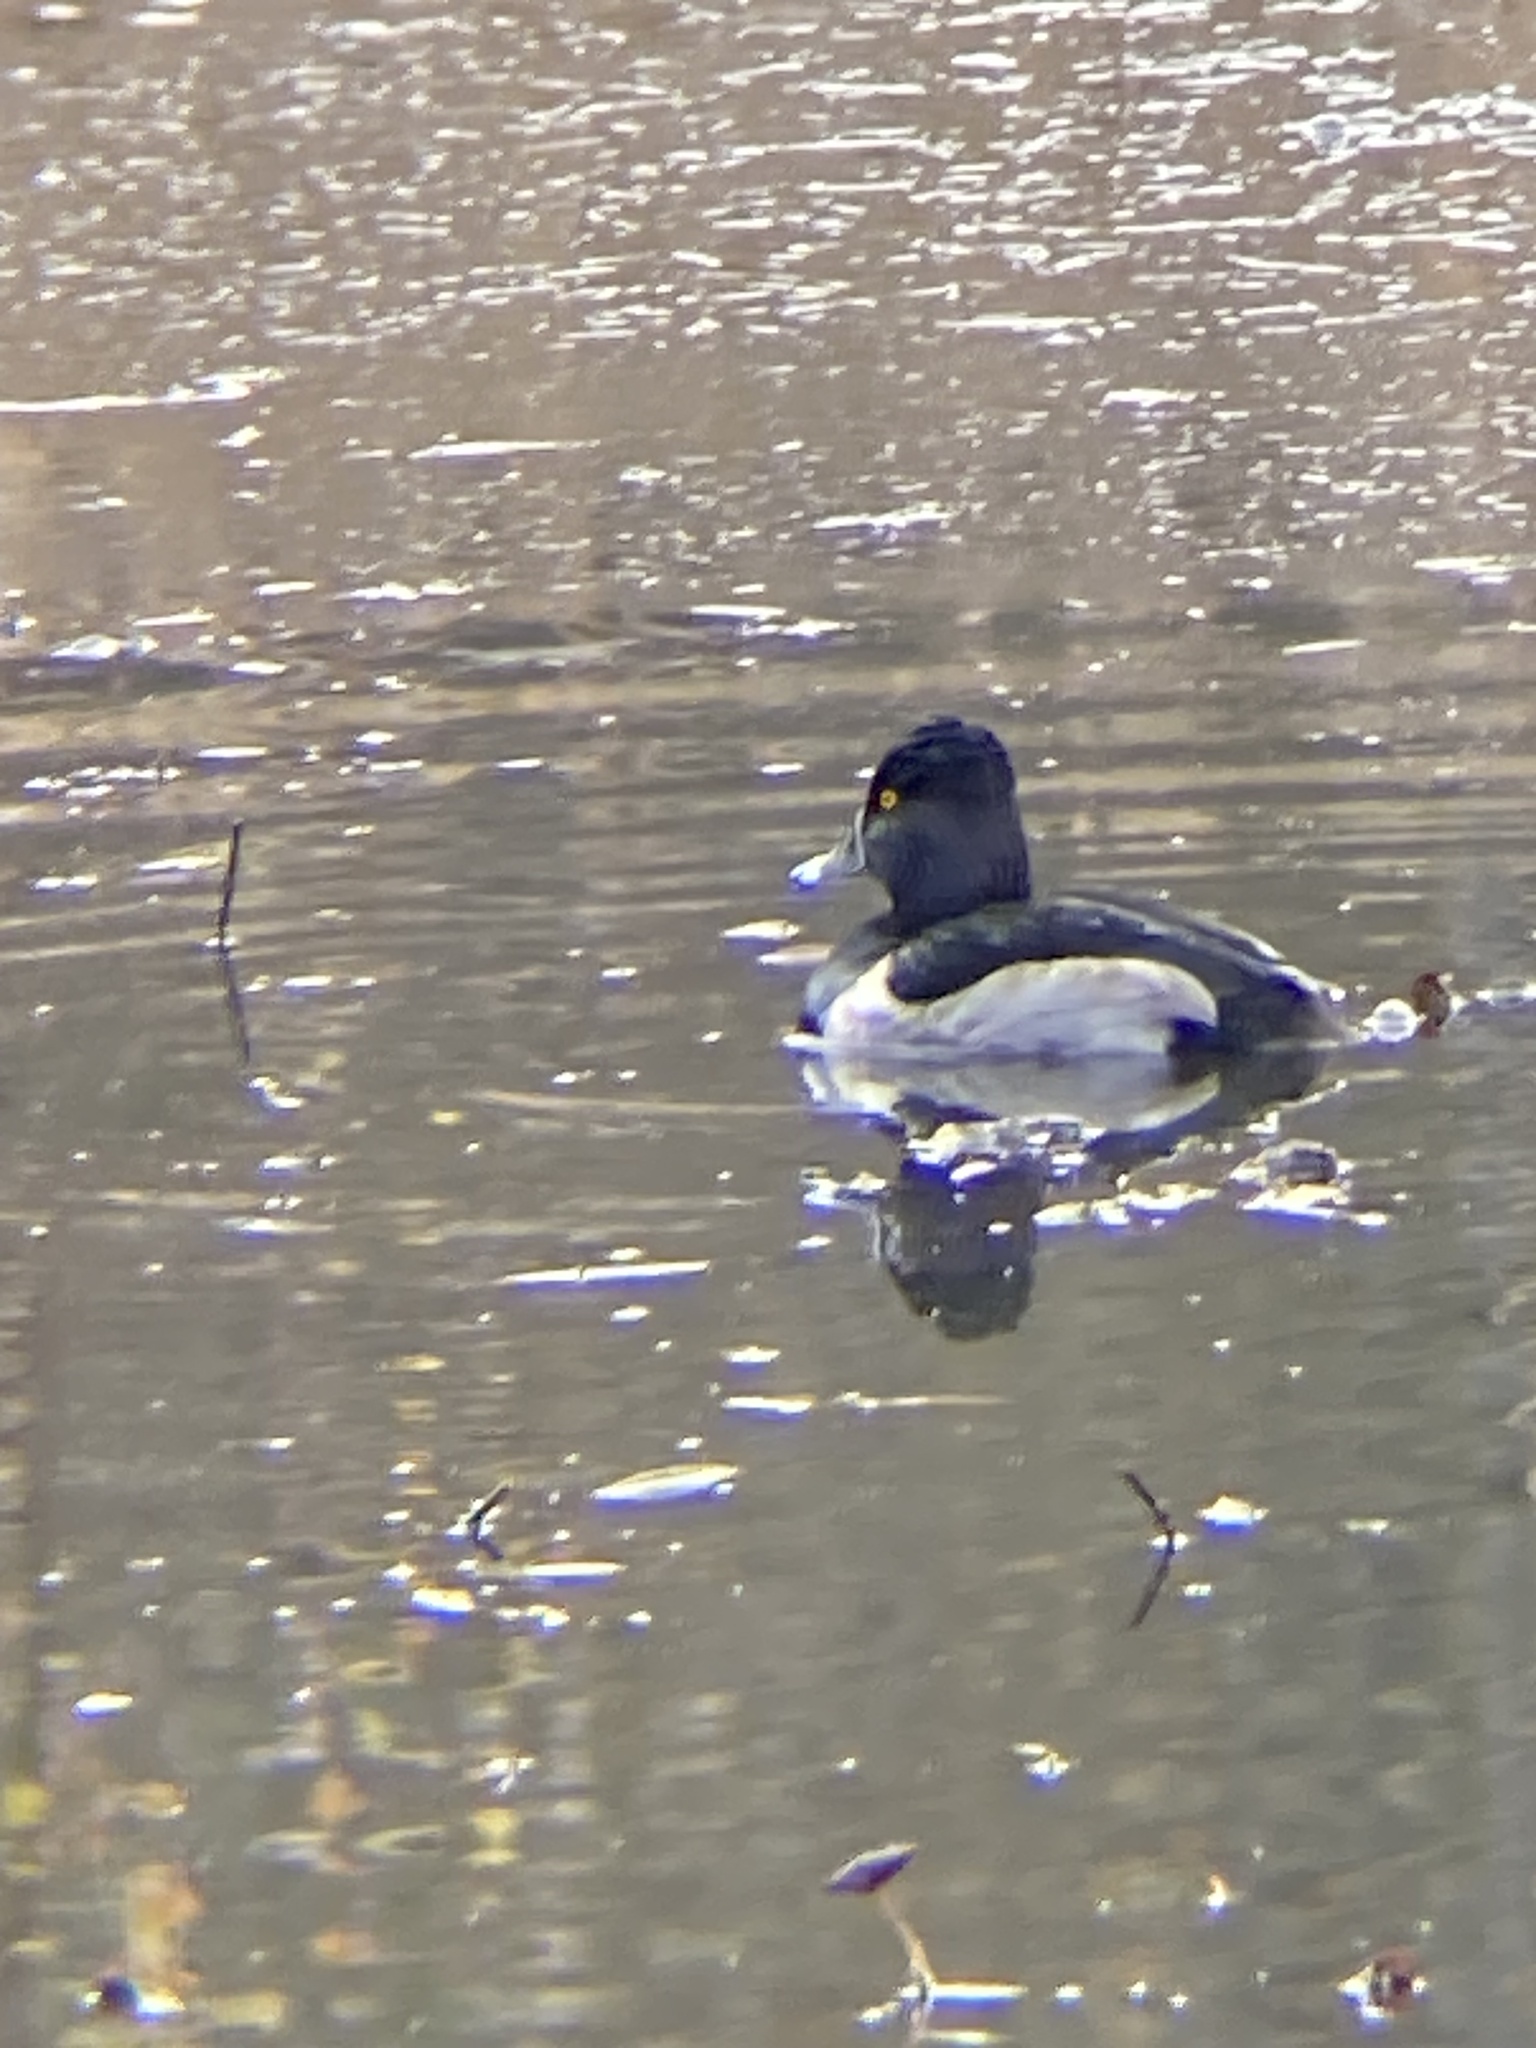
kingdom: Animalia
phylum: Chordata
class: Aves
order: Anseriformes
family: Anatidae
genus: Aythya
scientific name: Aythya collaris
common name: Ring-necked duck
